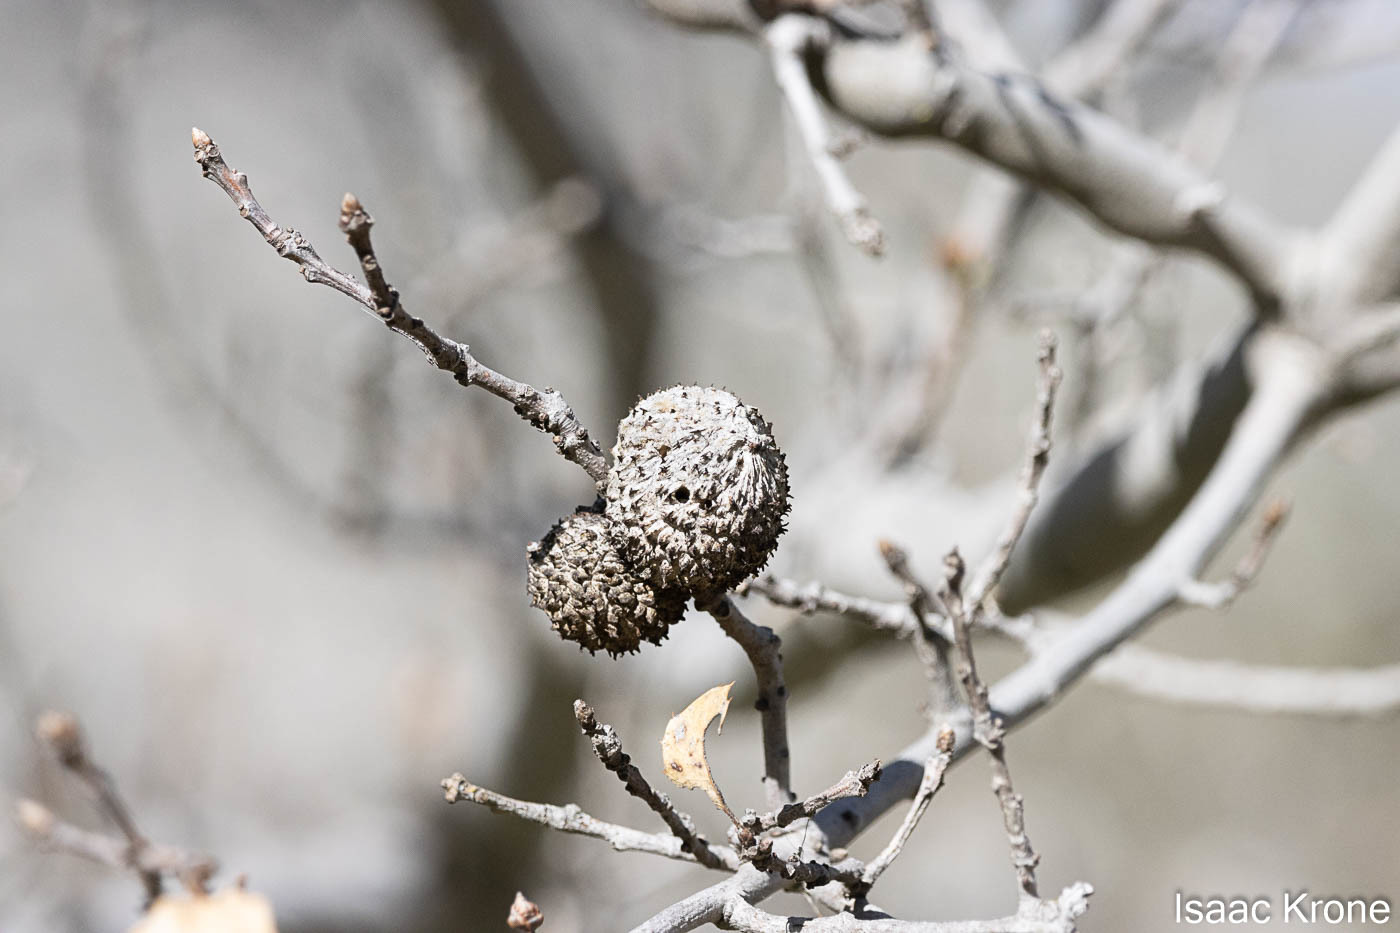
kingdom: Animalia
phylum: Arthropoda
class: Insecta
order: Hymenoptera
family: Cynipidae
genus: Amphibolips
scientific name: Amphibolips quercuspomiformis
